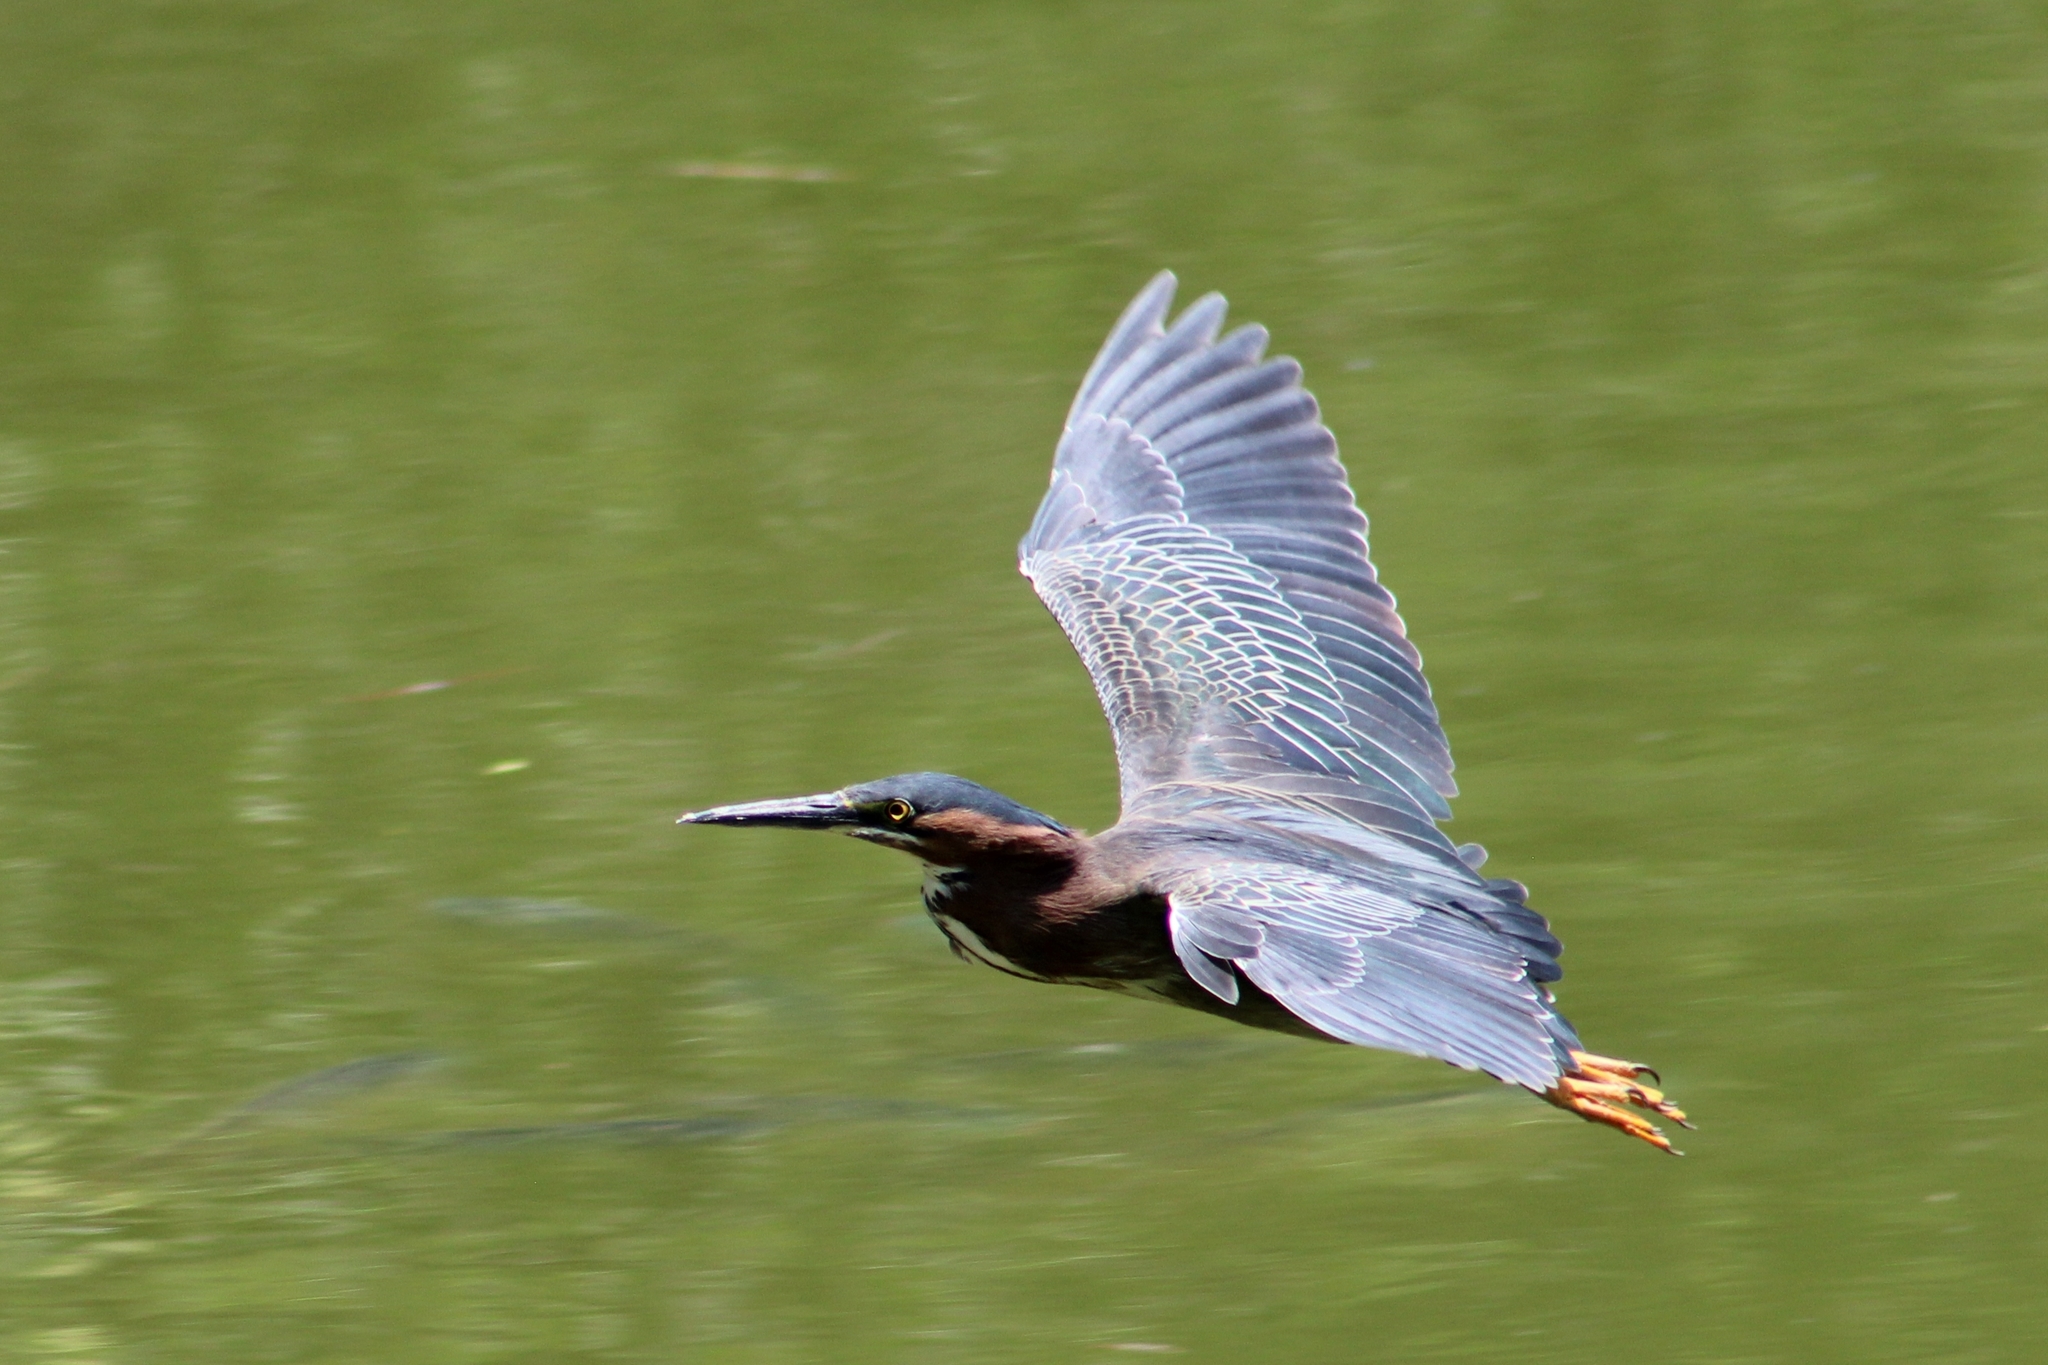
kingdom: Animalia
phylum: Chordata
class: Aves
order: Pelecaniformes
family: Ardeidae
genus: Butorides
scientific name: Butorides virescens
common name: Green heron
